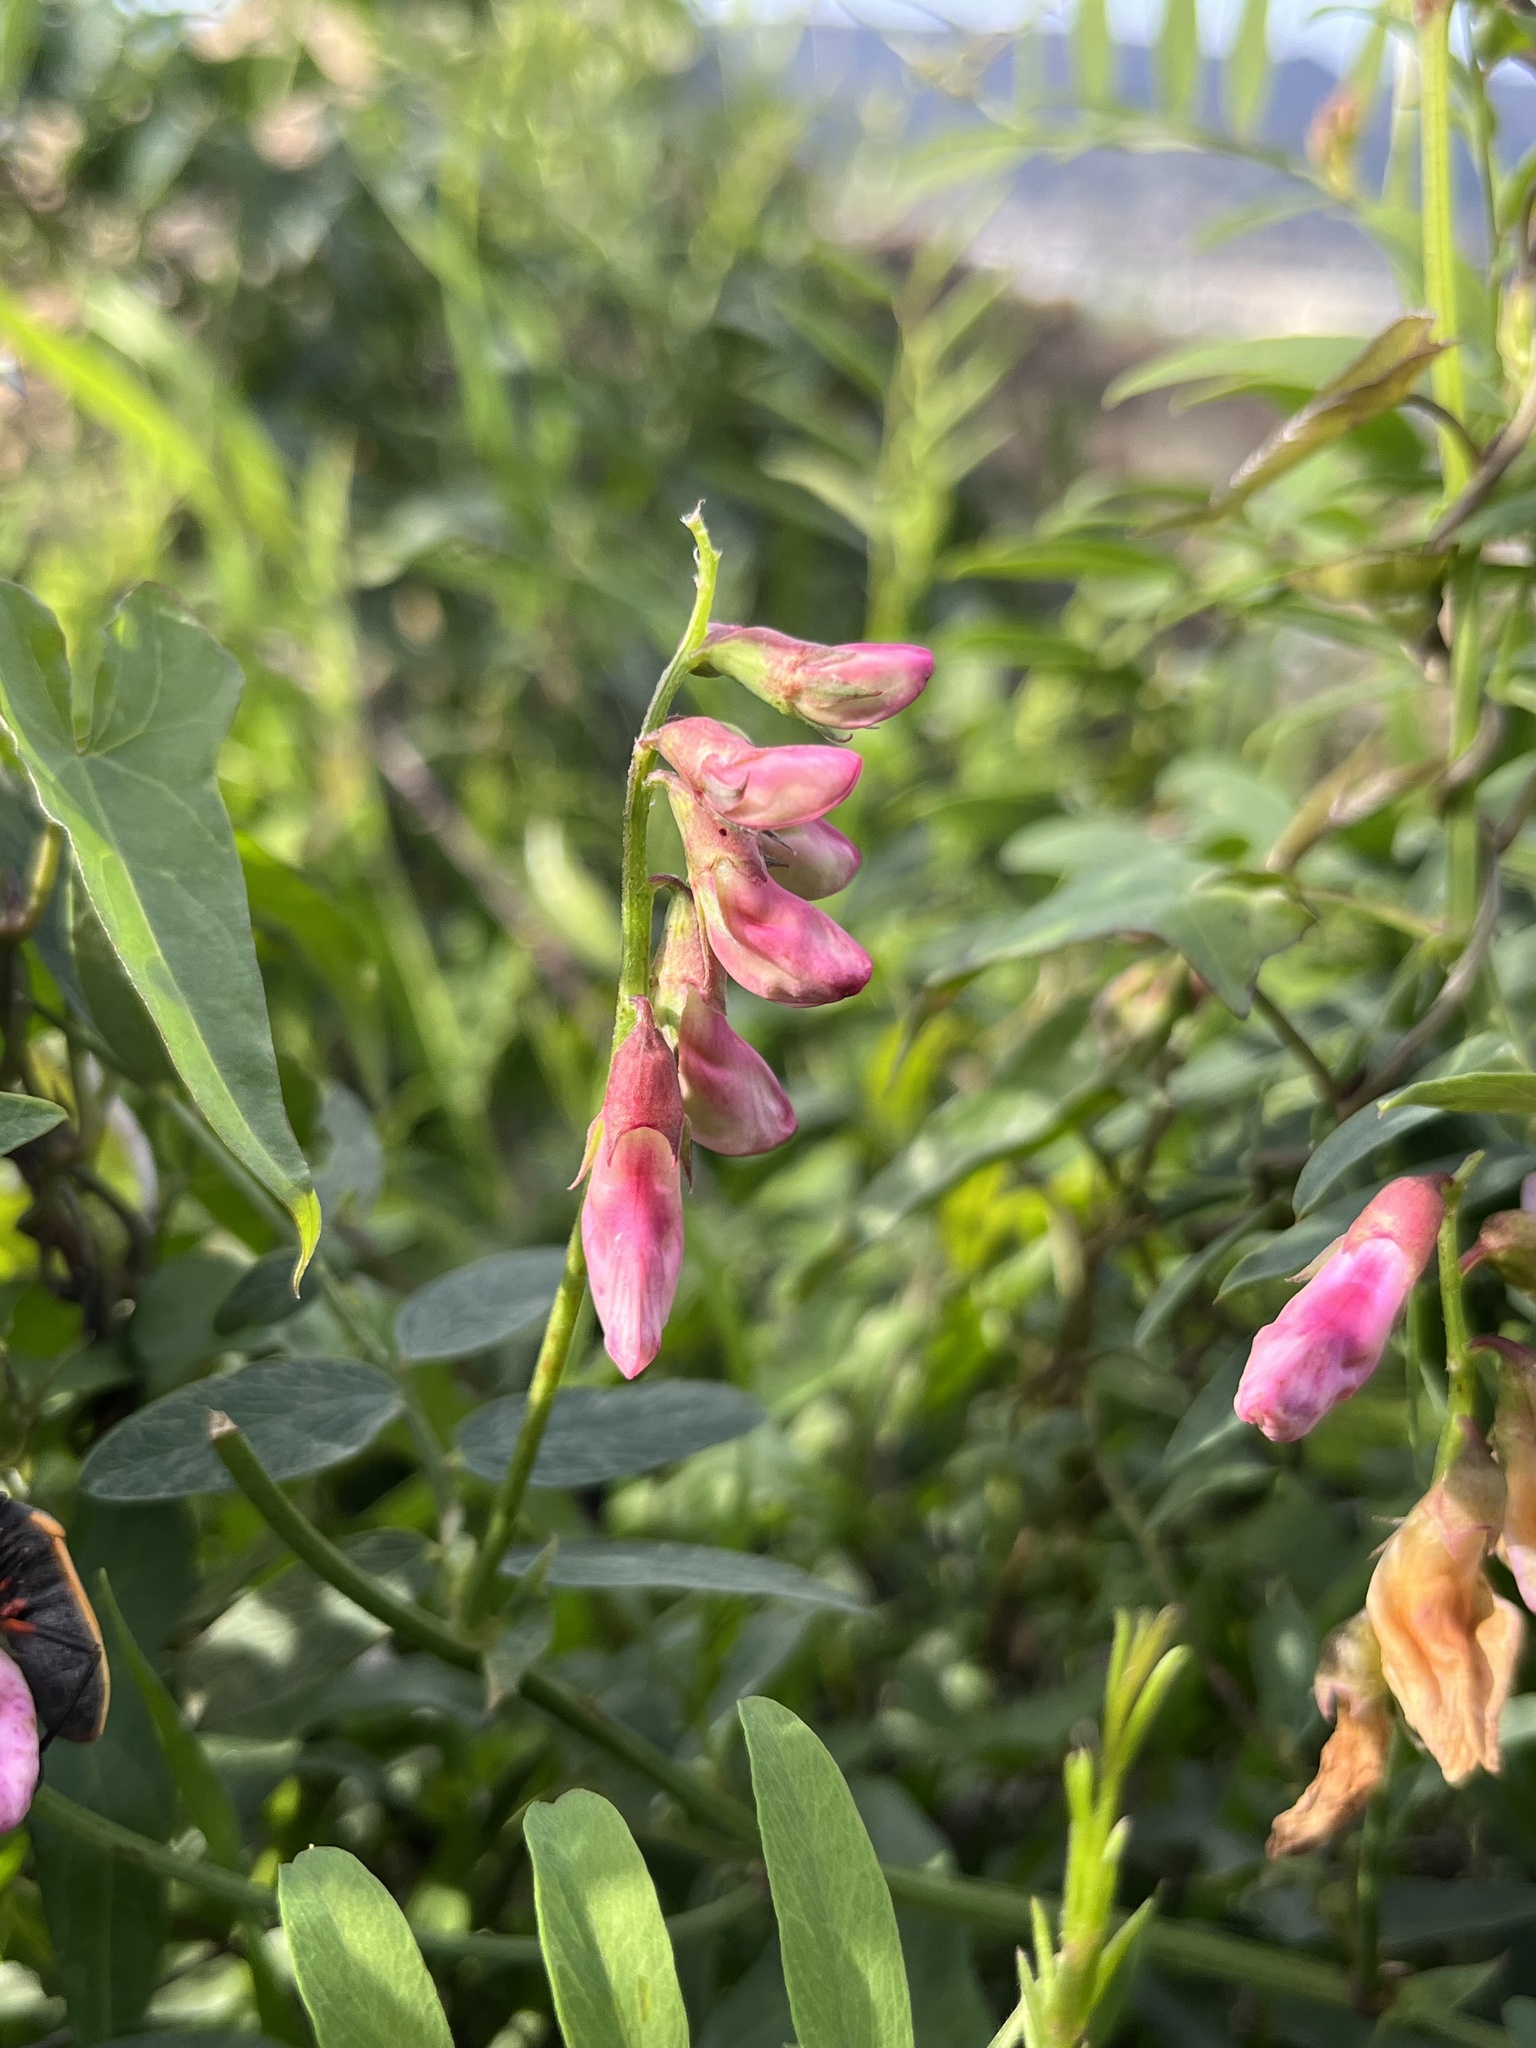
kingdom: Plantae
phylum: Tracheophyta
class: Magnoliopsida
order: Fabales
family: Fabaceae
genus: Lathyrus
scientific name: Lathyrus vestitus
